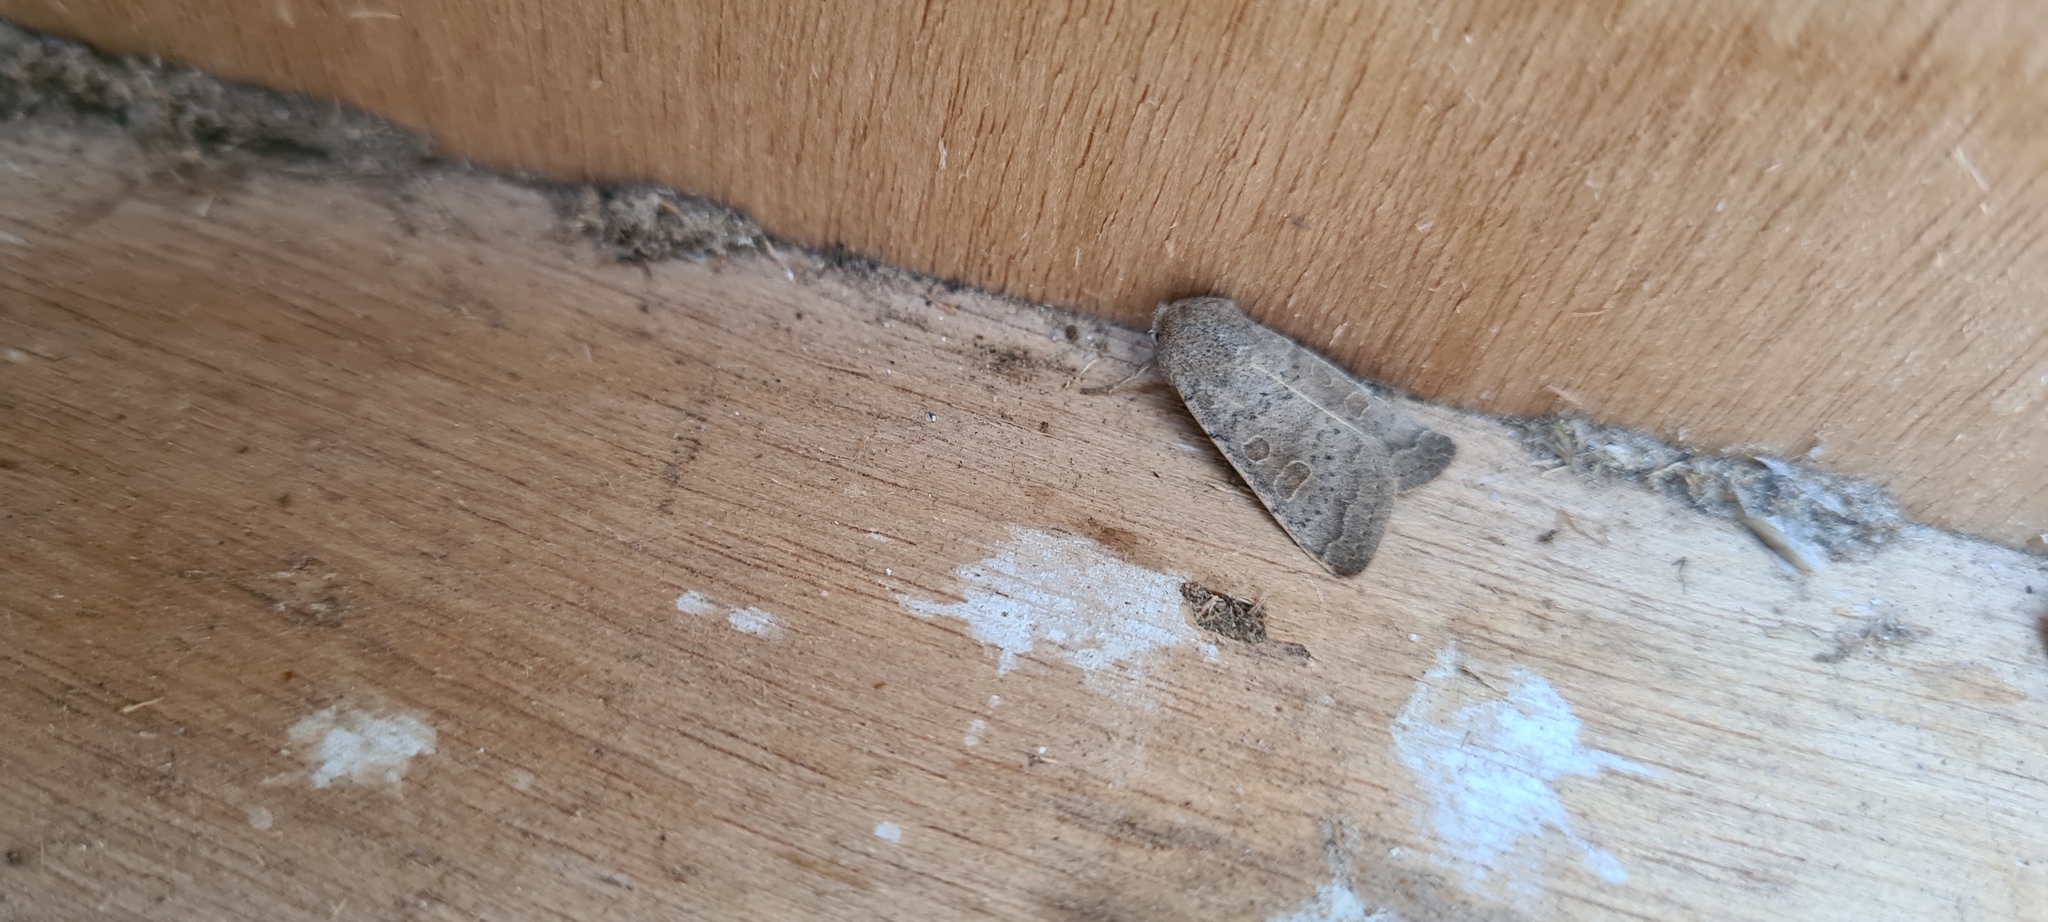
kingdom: Animalia
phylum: Arthropoda
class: Insecta
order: Lepidoptera
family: Noctuidae
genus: Hoplodrina
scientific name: Hoplodrina ambigua
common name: Vine's rustic
